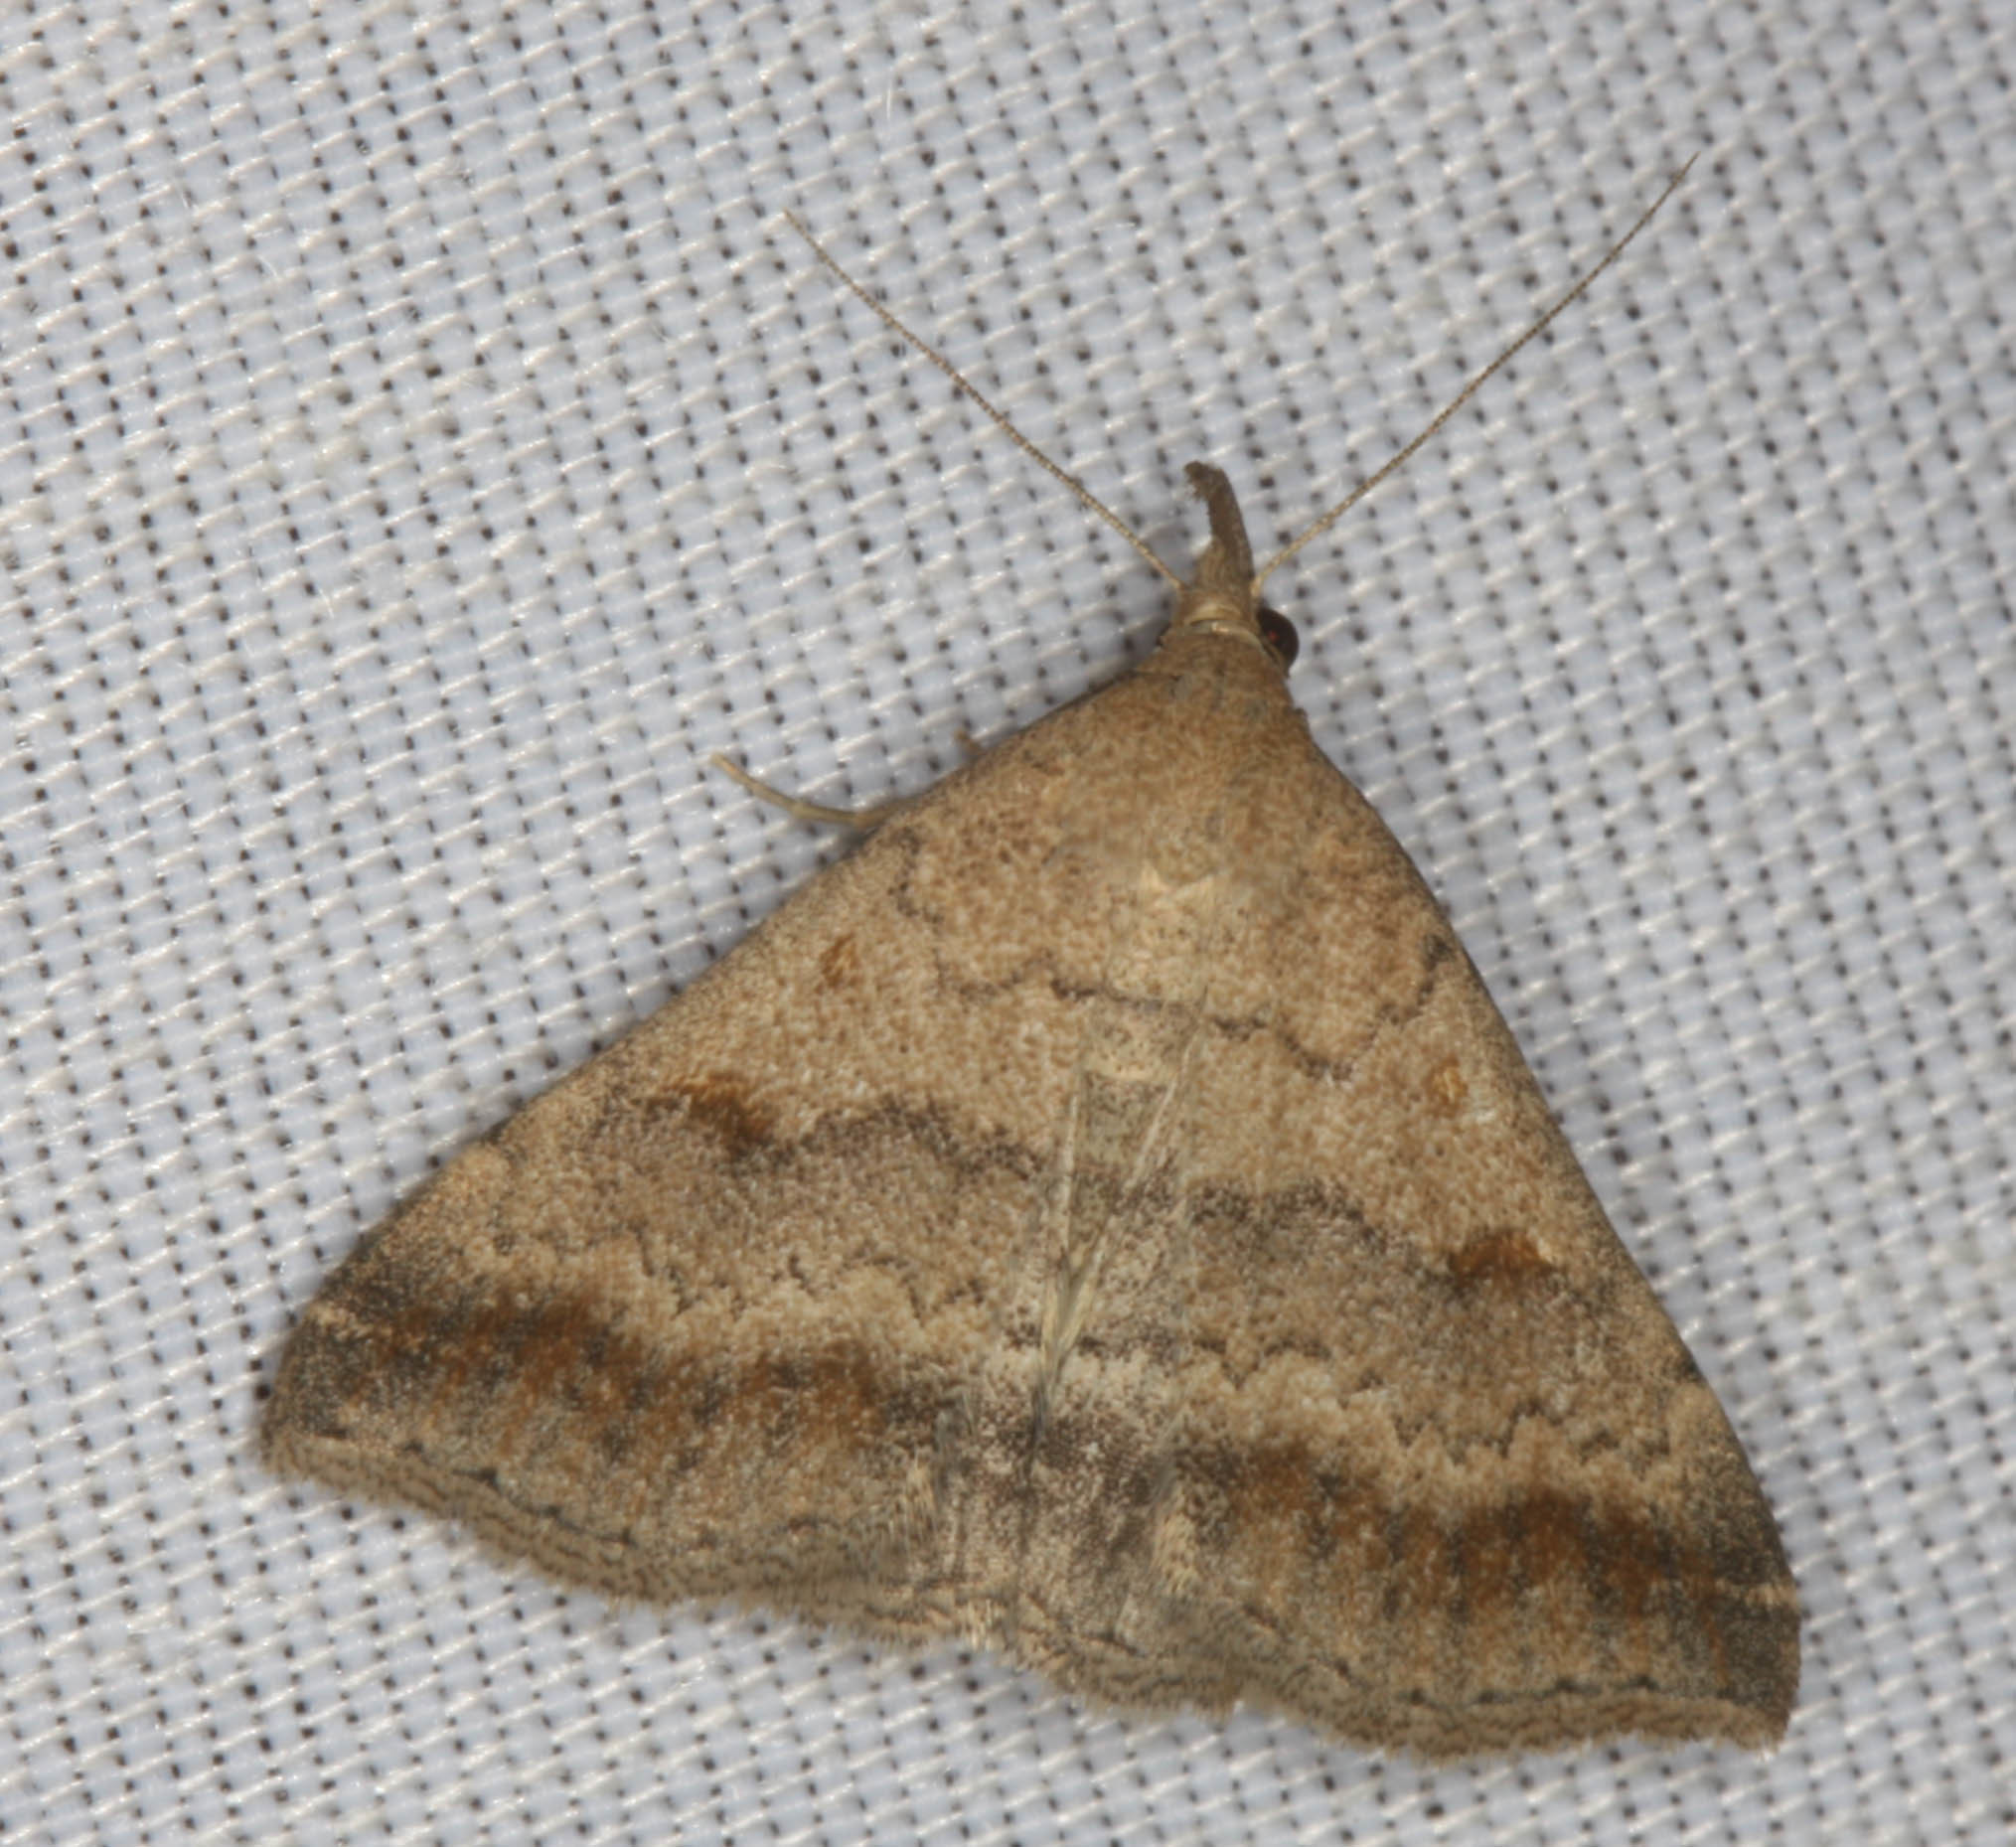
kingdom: Animalia
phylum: Arthropoda
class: Insecta
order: Lepidoptera
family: Erebidae
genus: Tetanolita
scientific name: Tetanolita palligera
